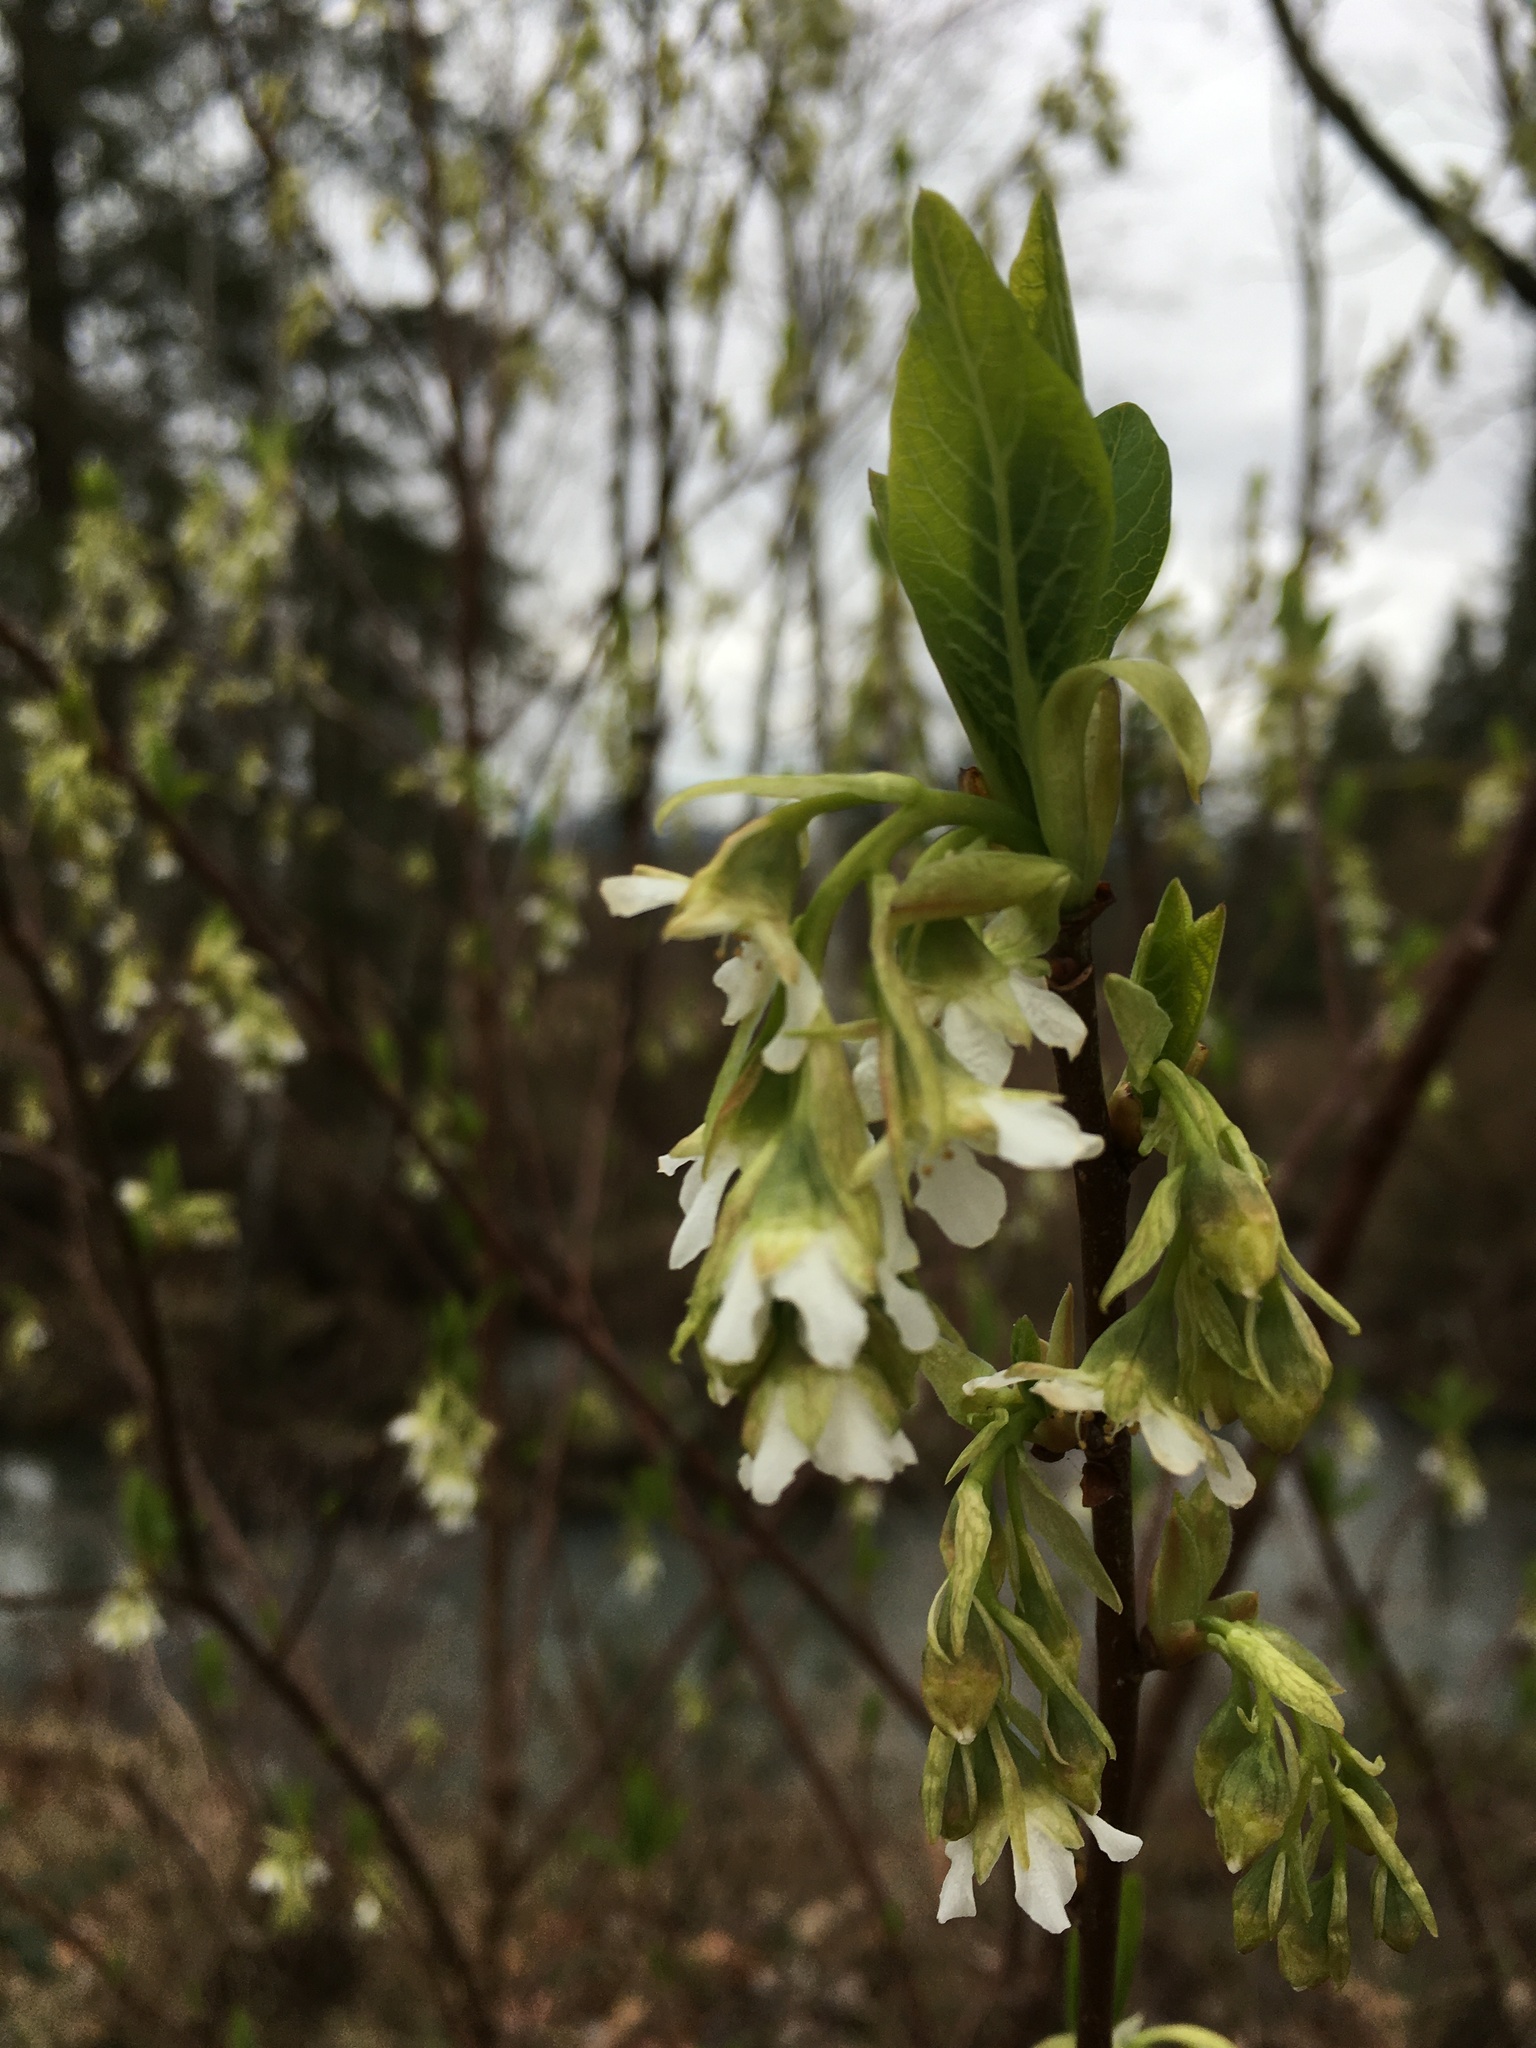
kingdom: Plantae
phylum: Tracheophyta
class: Magnoliopsida
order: Rosales
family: Rosaceae
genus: Oemleria
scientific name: Oemleria cerasiformis
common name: Osoberry
